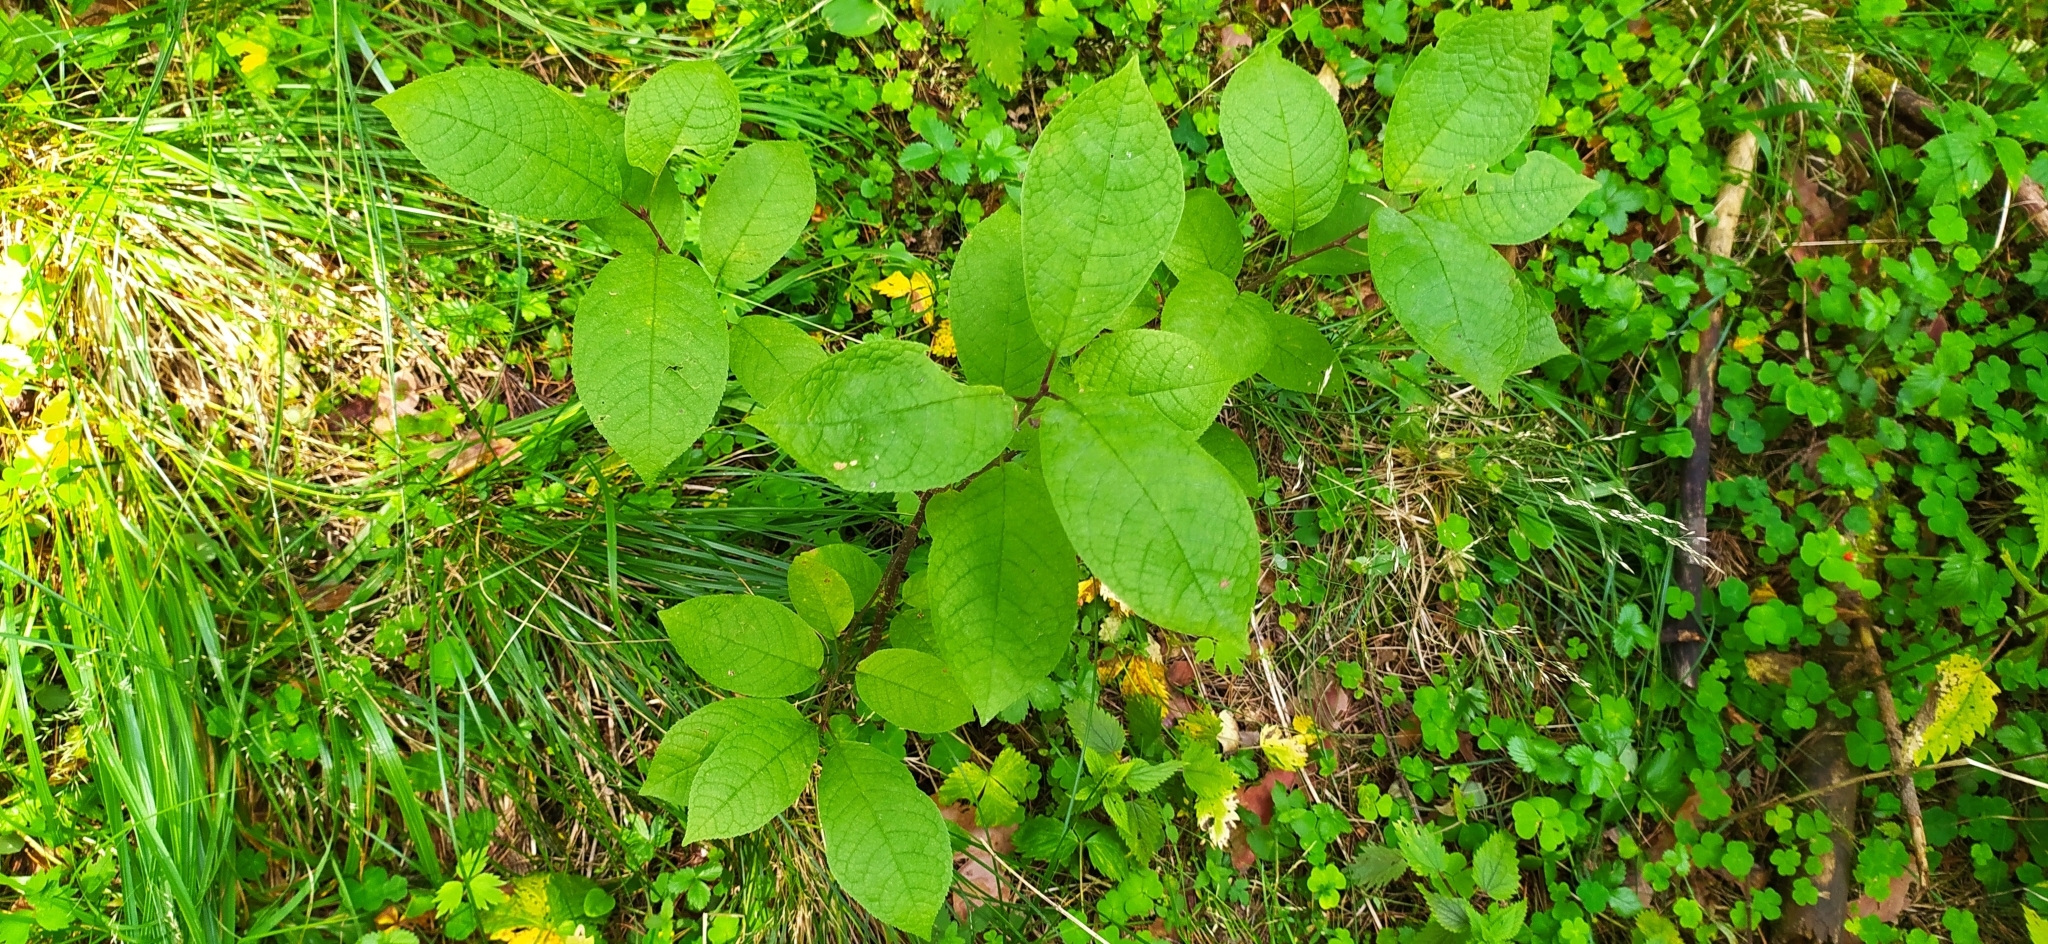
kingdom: Plantae
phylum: Tracheophyta
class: Magnoliopsida
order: Rosales
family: Rosaceae
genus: Prunus
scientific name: Prunus padus
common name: Bird cherry
